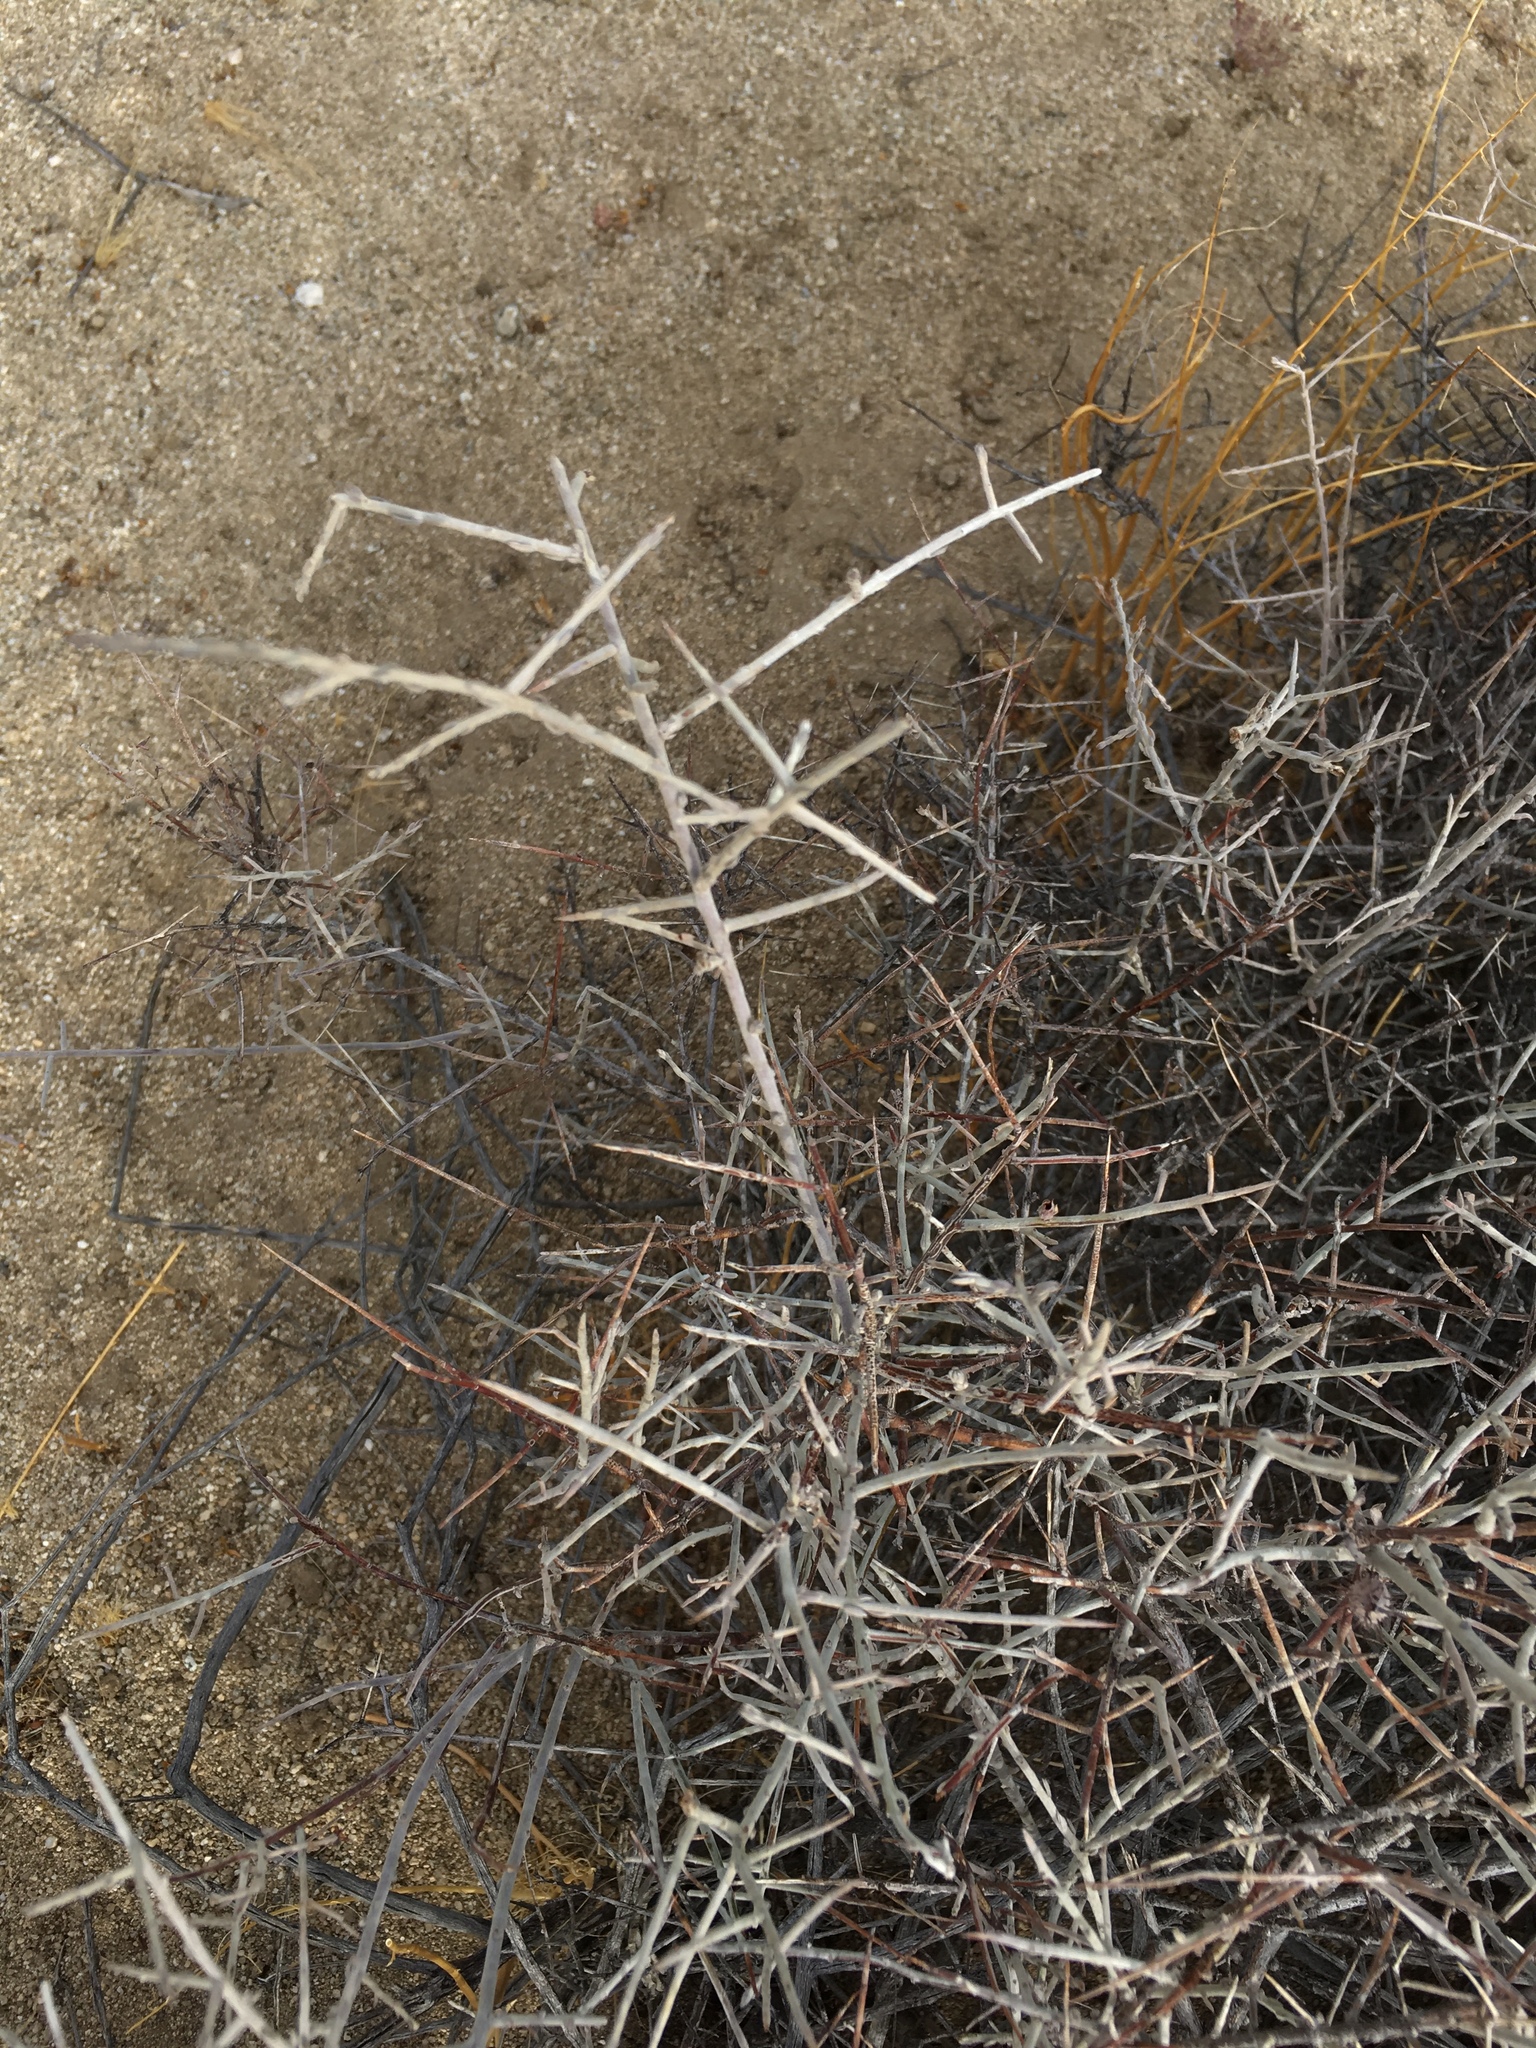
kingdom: Plantae
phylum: Tracheophyta
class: Magnoliopsida
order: Zygophyllales
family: Krameriaceae
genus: Krameria
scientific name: Krameria bicolor
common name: White ratany
